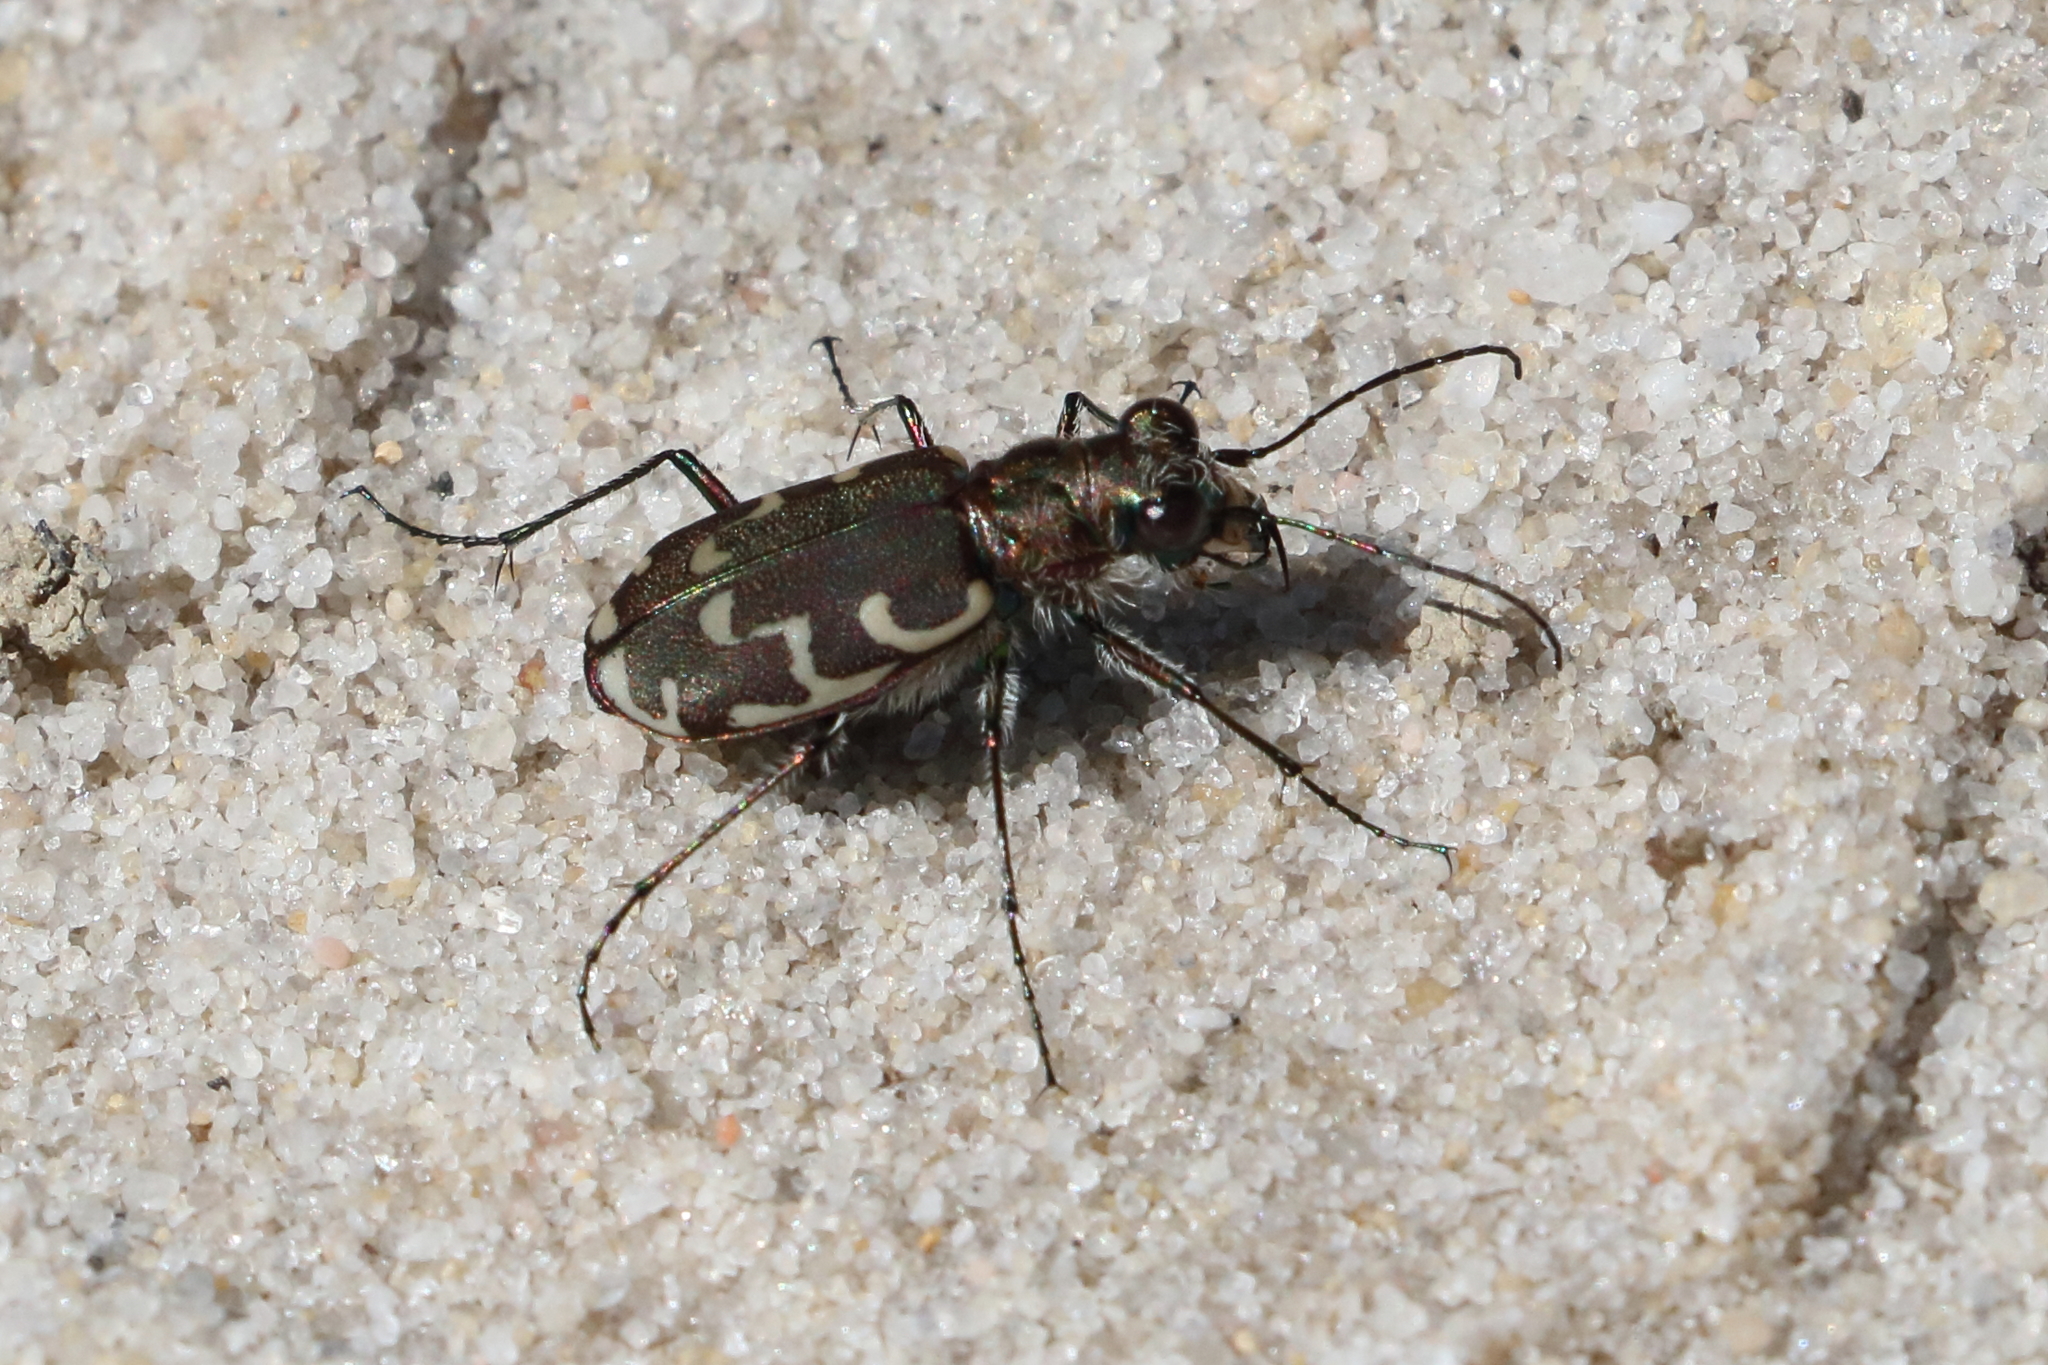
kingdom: Animalia
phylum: Arthropoda
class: Insecta
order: Coleoptera
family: Carabidae
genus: Cicindela
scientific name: Cicindela repanda
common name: Bronzed tiger beetle
